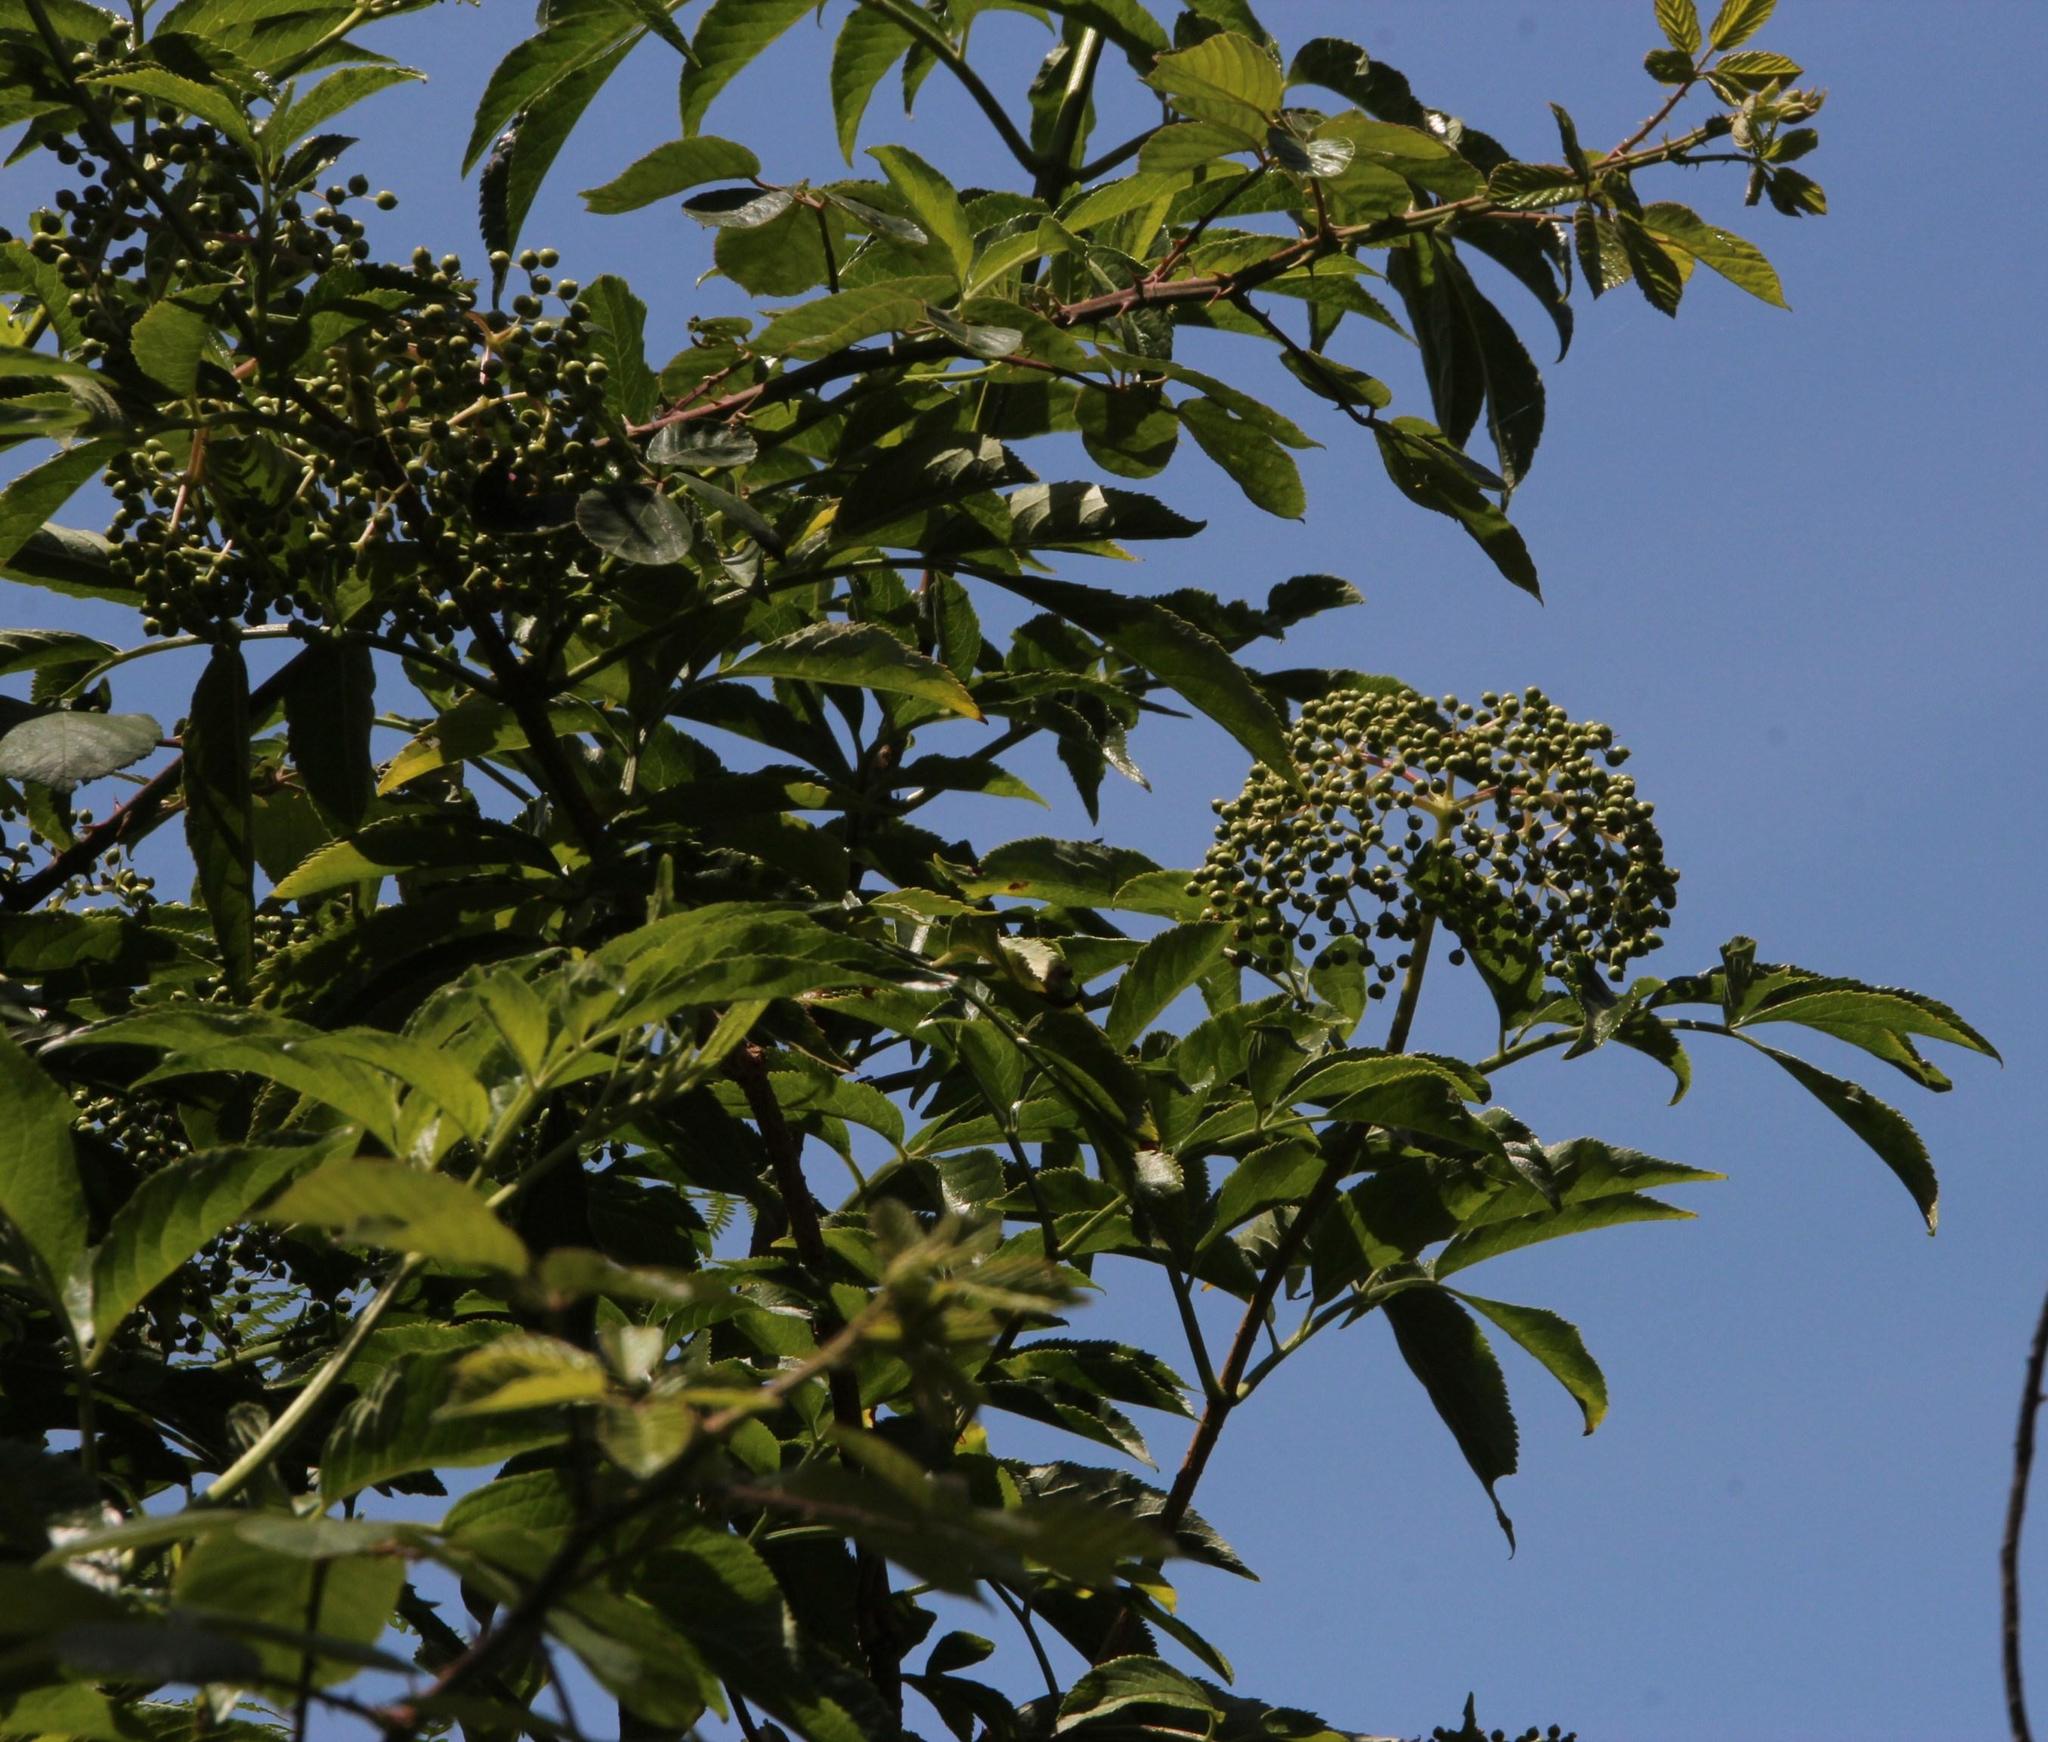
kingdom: Plantae
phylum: Tracheophyta
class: Magnoliopsida
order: Dipsacales
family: Viburnaceae
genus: Sambucus
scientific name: Sambucus nigra
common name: Elder
